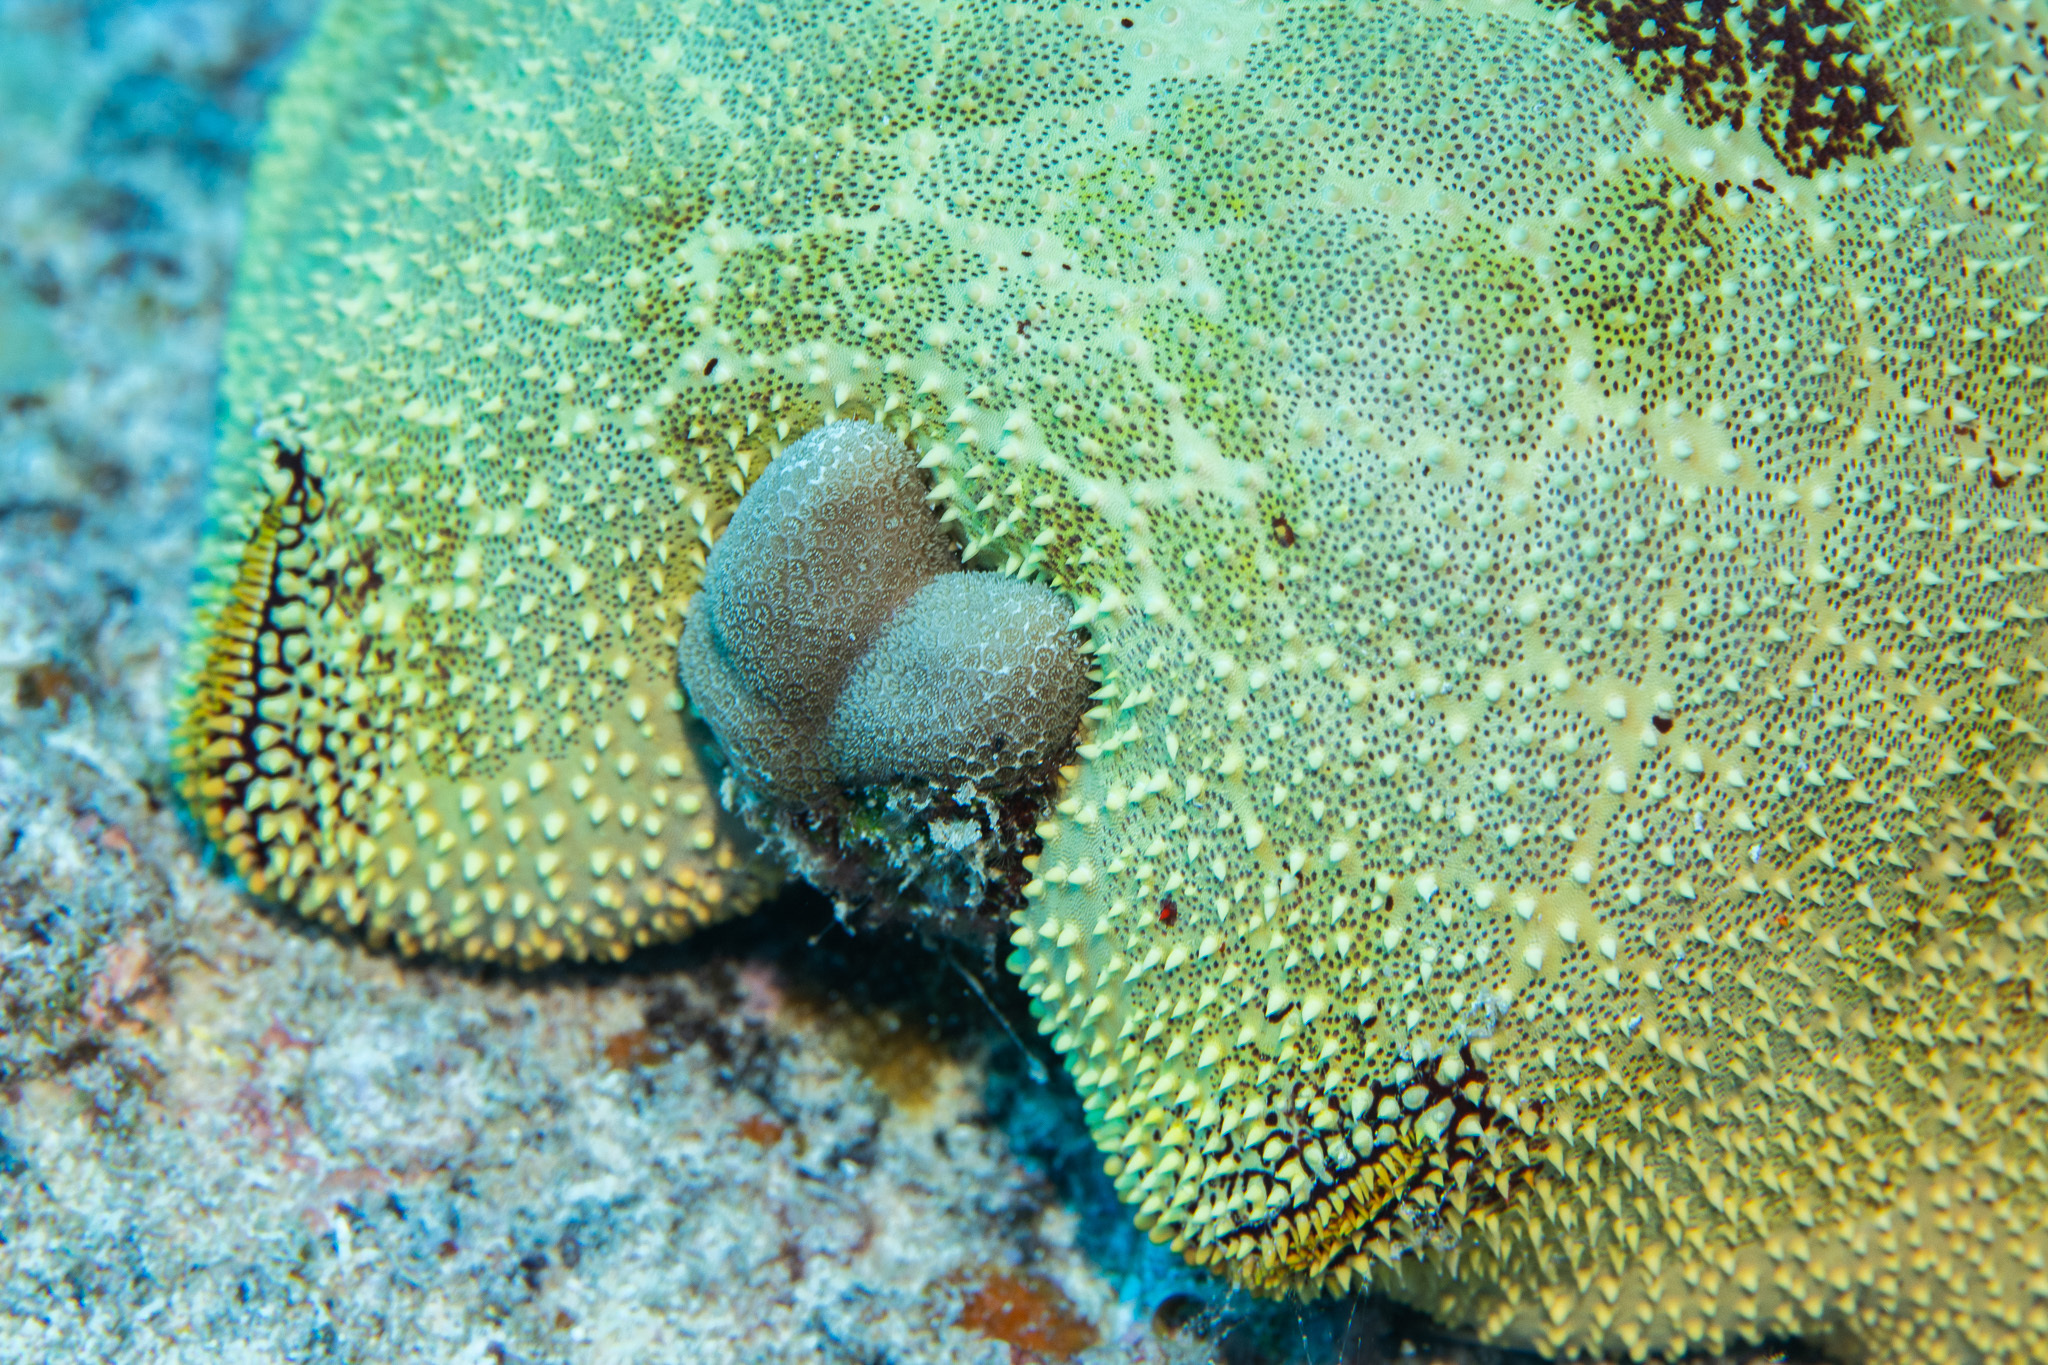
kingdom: Animalia
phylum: Echinodermata
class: Asteroidea
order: Valvatida
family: Oreasteridae
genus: Culcita
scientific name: Culcita novaeguineae
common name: Cushion star
